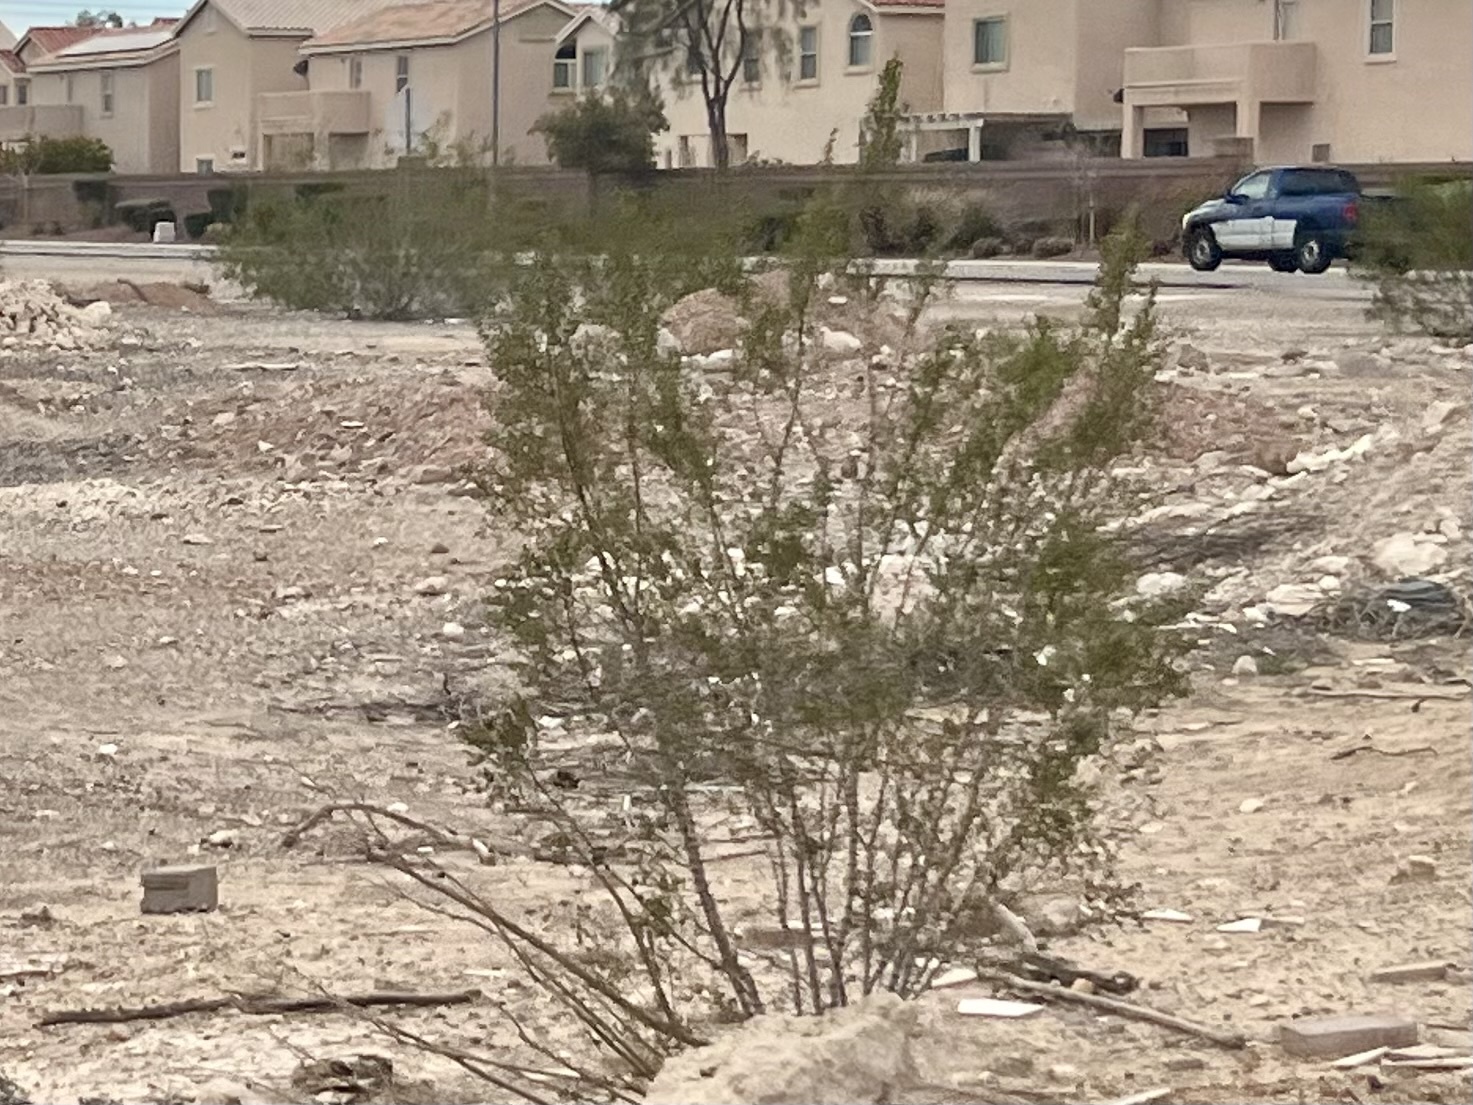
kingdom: Plantae
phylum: Tracheophyta
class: Magnoliopsida
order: Zygophyllales
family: Zygophyllaceae
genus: Larrea
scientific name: Larrea tridentata
